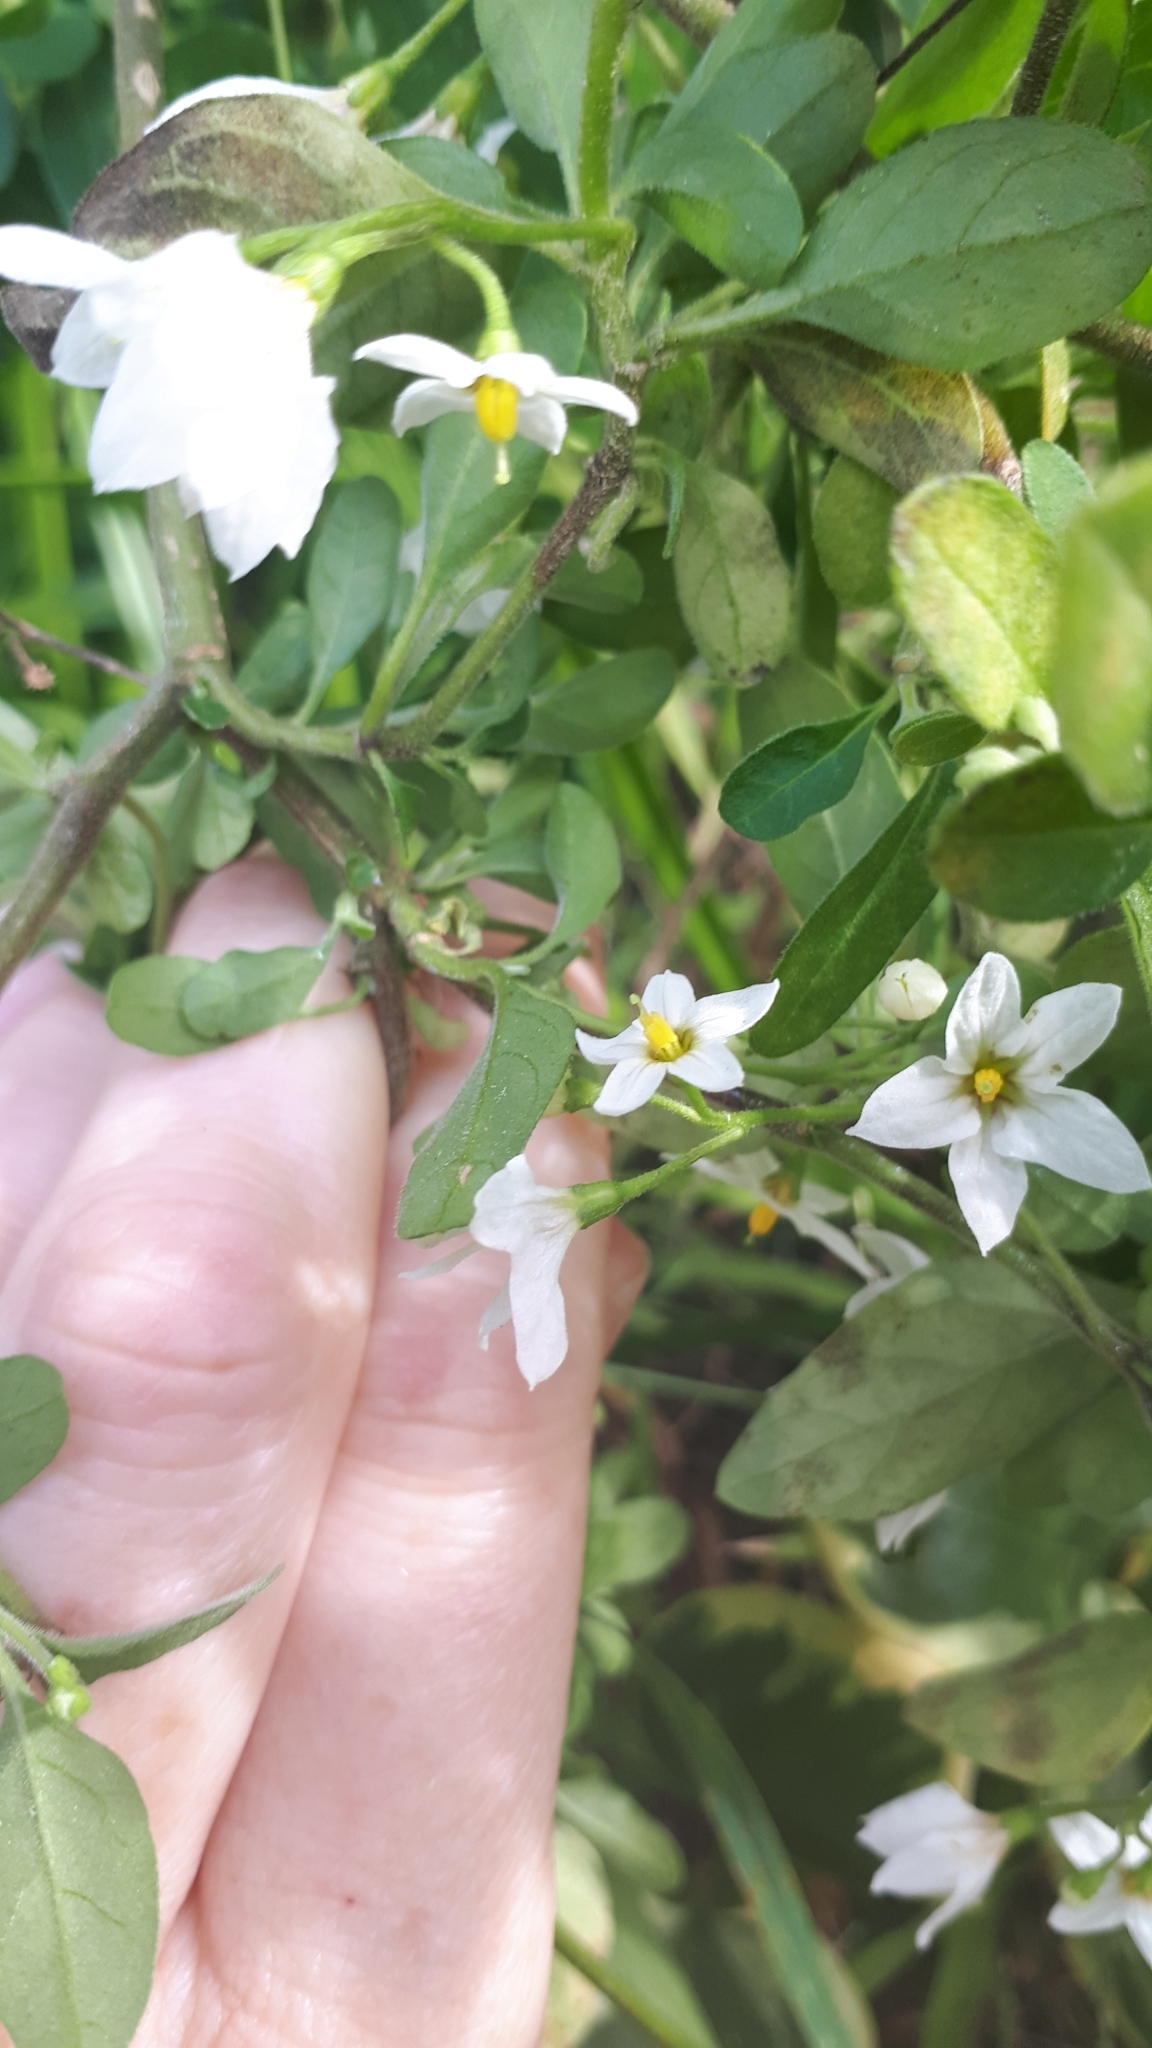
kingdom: Plantae
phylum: Tracheophyta
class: Magnoliopsida
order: Solanales
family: Solanaceae
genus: Solanum
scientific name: Solanum chenopodioides
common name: Tall nightshade
